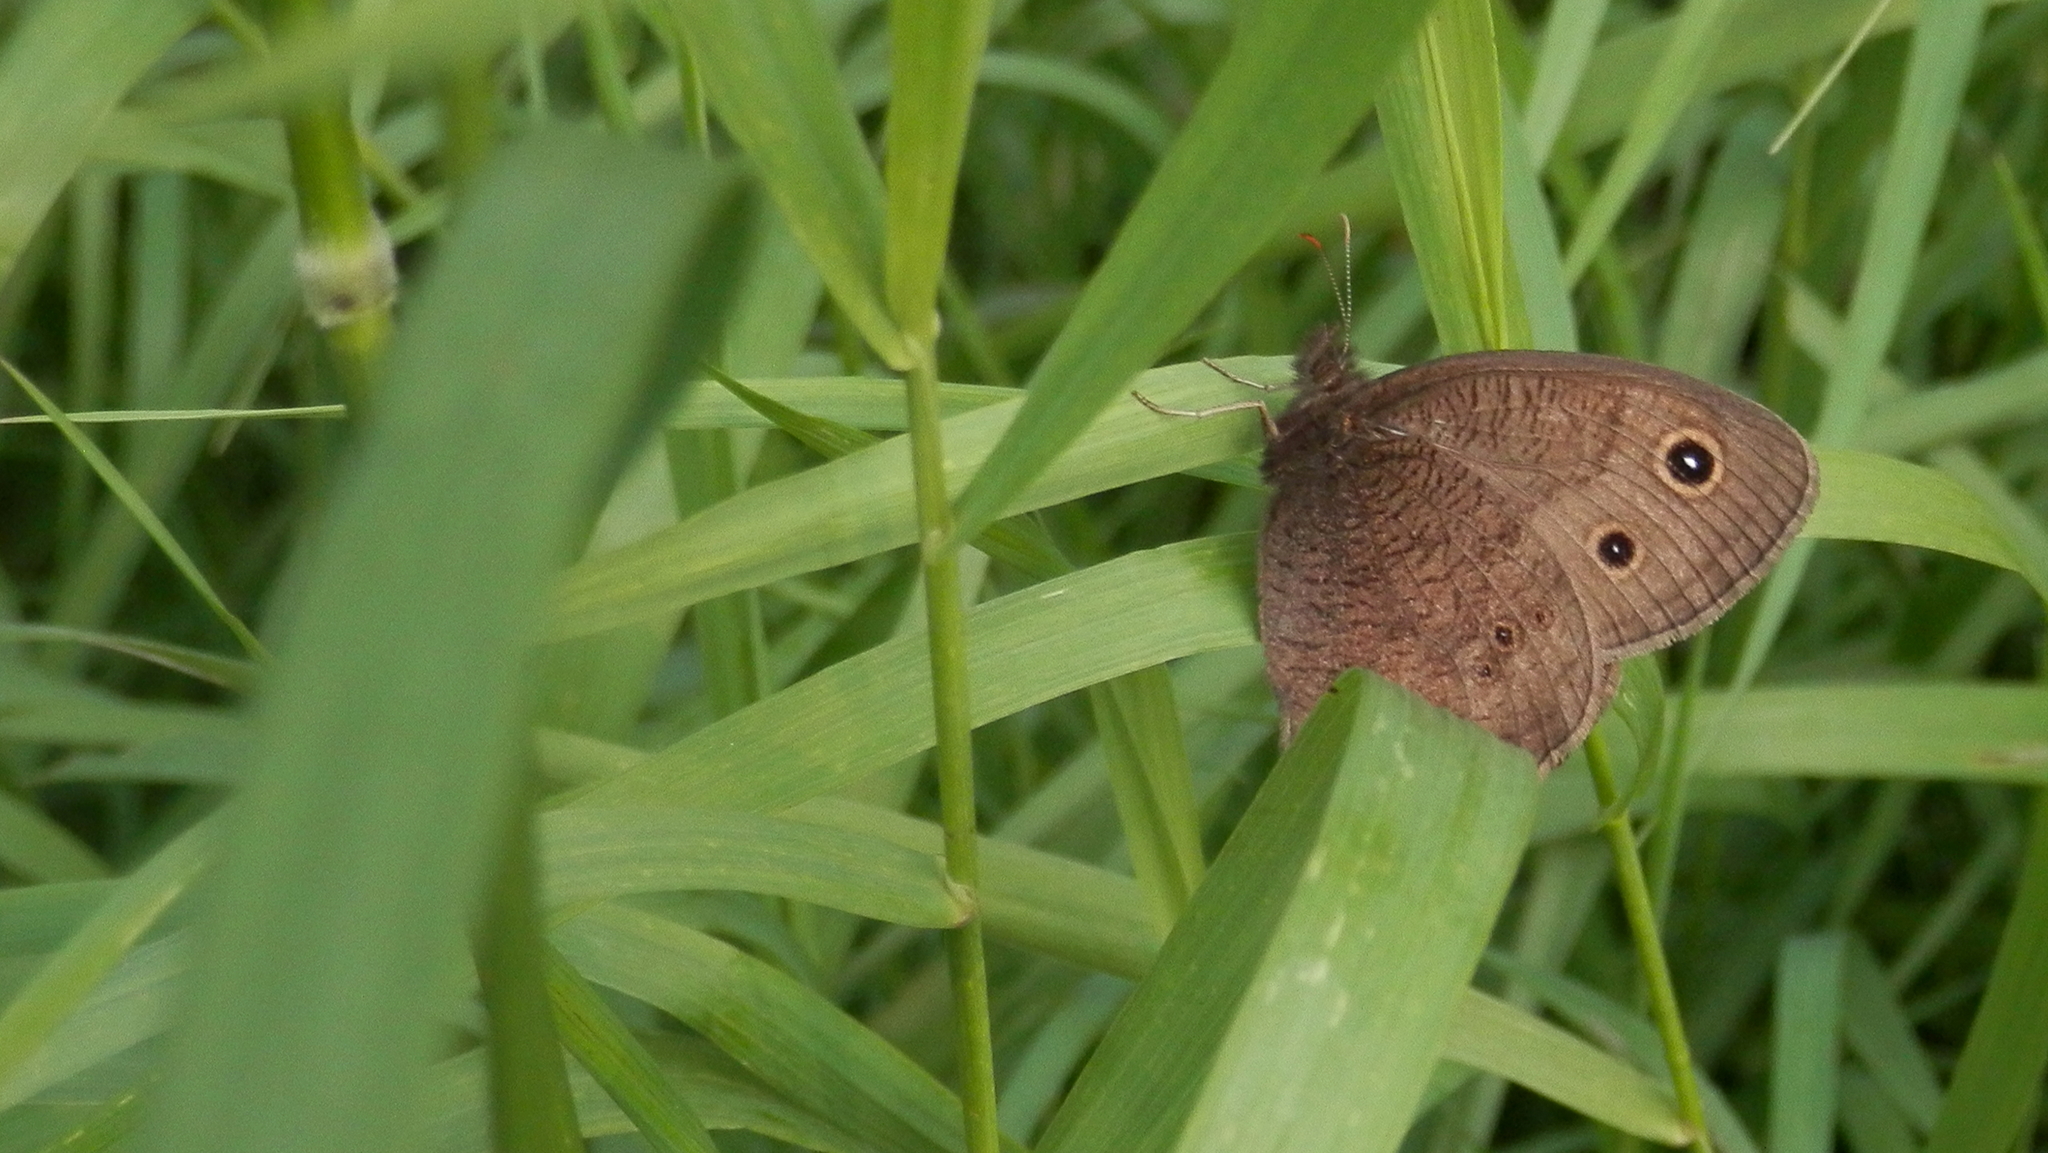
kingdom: Animalia
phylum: Arthropoda
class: Insecta
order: Lepidoptera
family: Nymphalidae
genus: Cercyonis
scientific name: Cercyonis pegala
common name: Common wood-nymph
